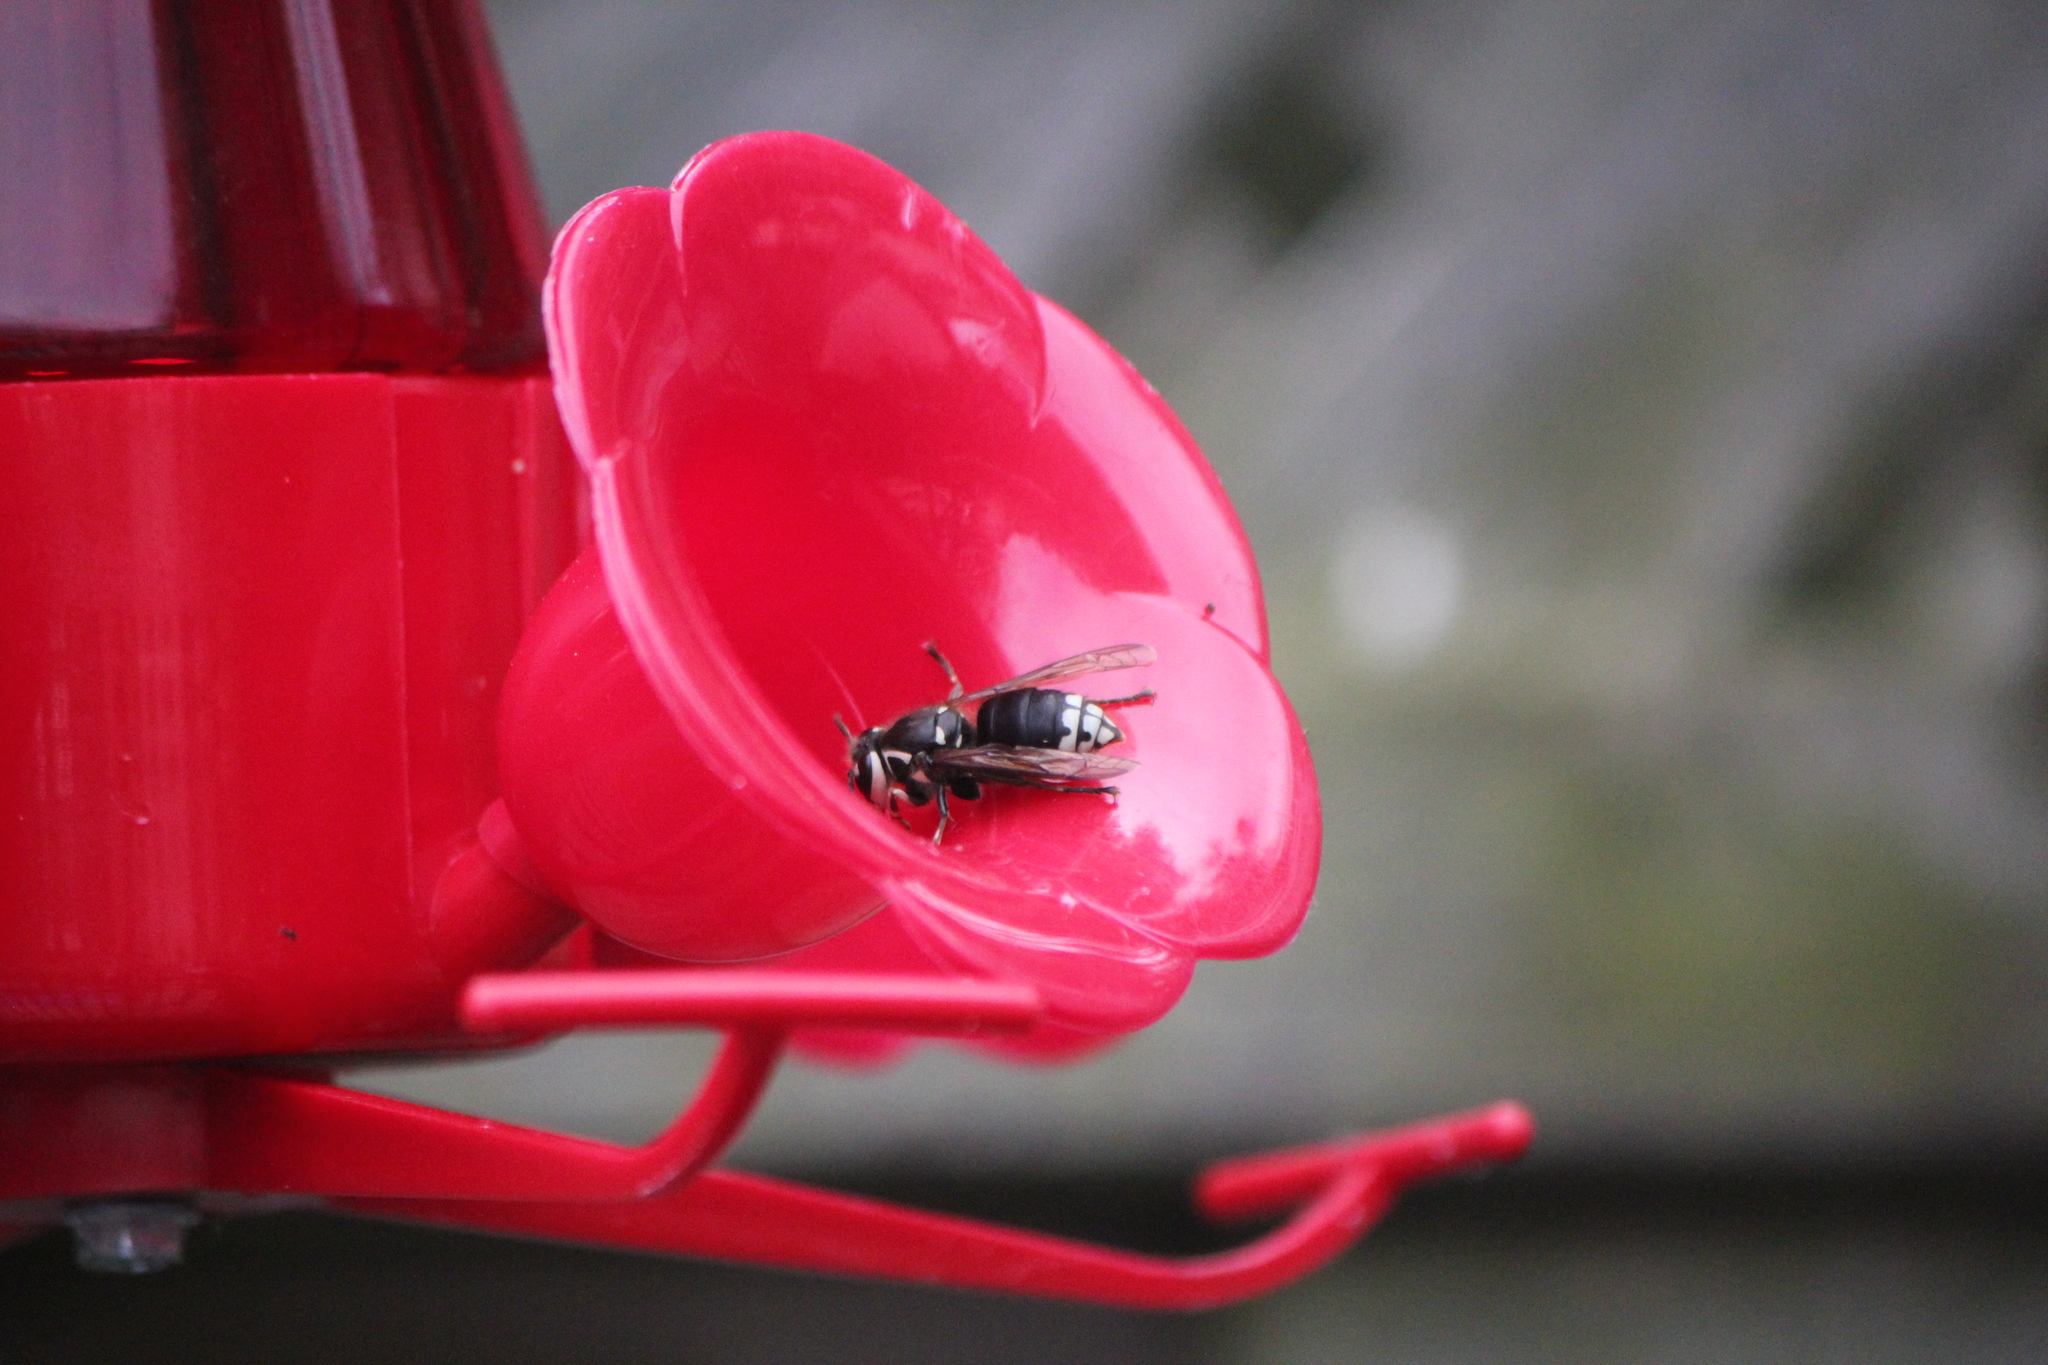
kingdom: Animalia
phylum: Arthropoda
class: Insecta
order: Hymenoptera
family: Vespidae
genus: Dolichovespula
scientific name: Dolichovespula maculata
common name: Bald-faced hornet
